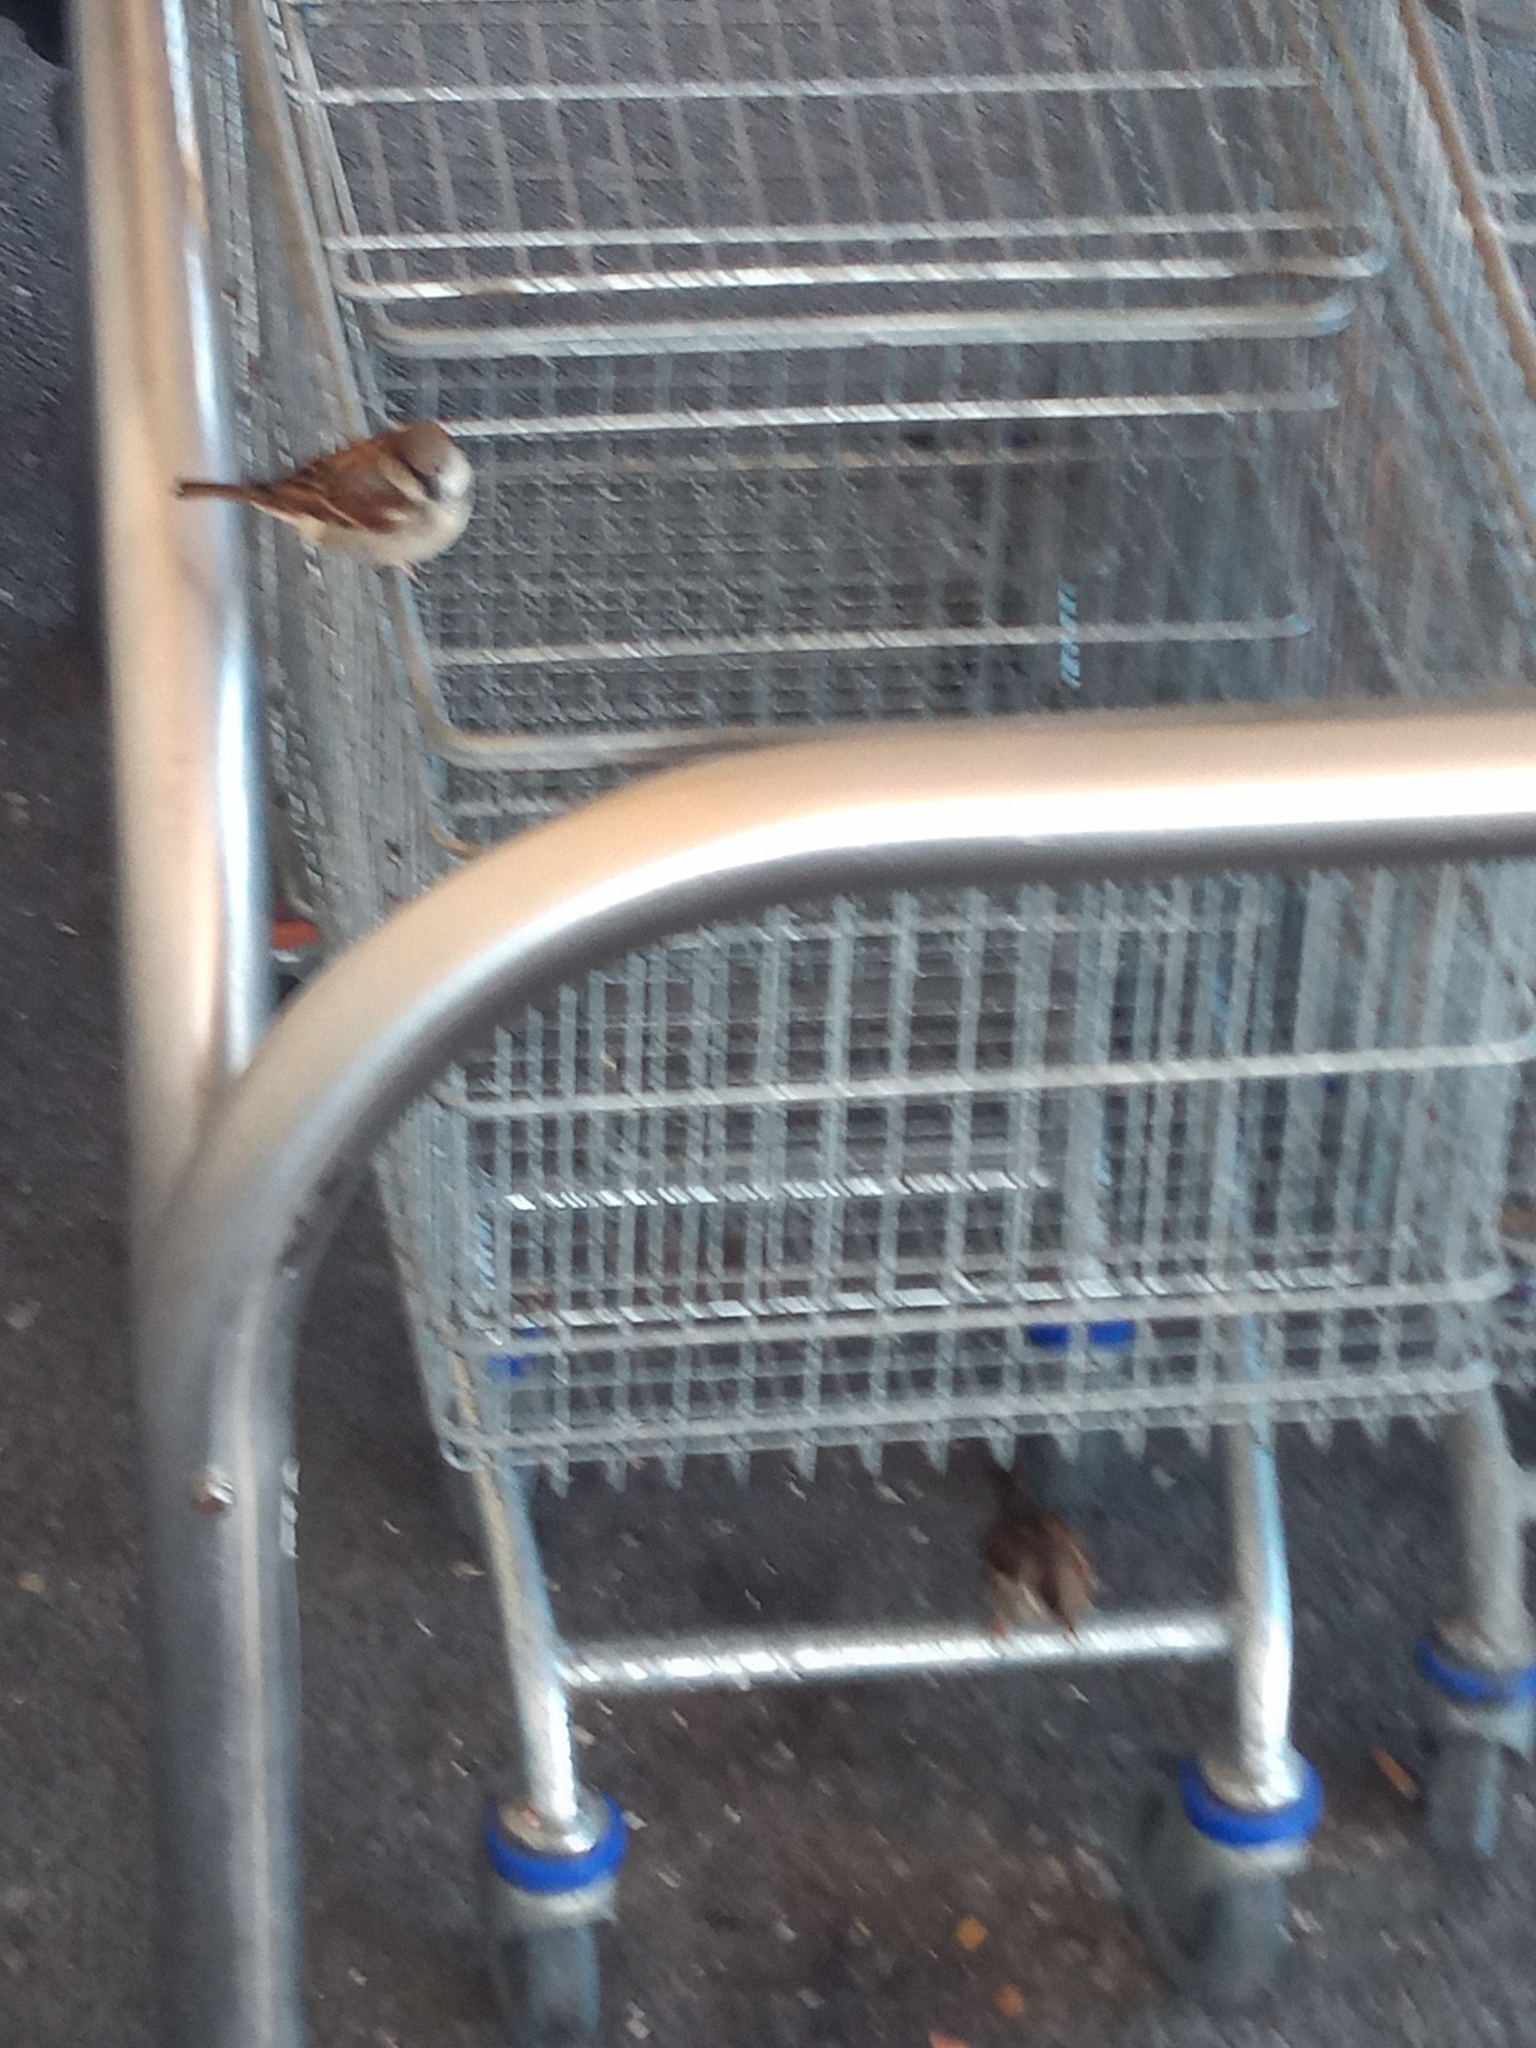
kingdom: Animalia
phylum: Chordata
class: Aves
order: Passeriformes
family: Passeridae
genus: Passer
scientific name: Passer domesticus
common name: House sparrow
